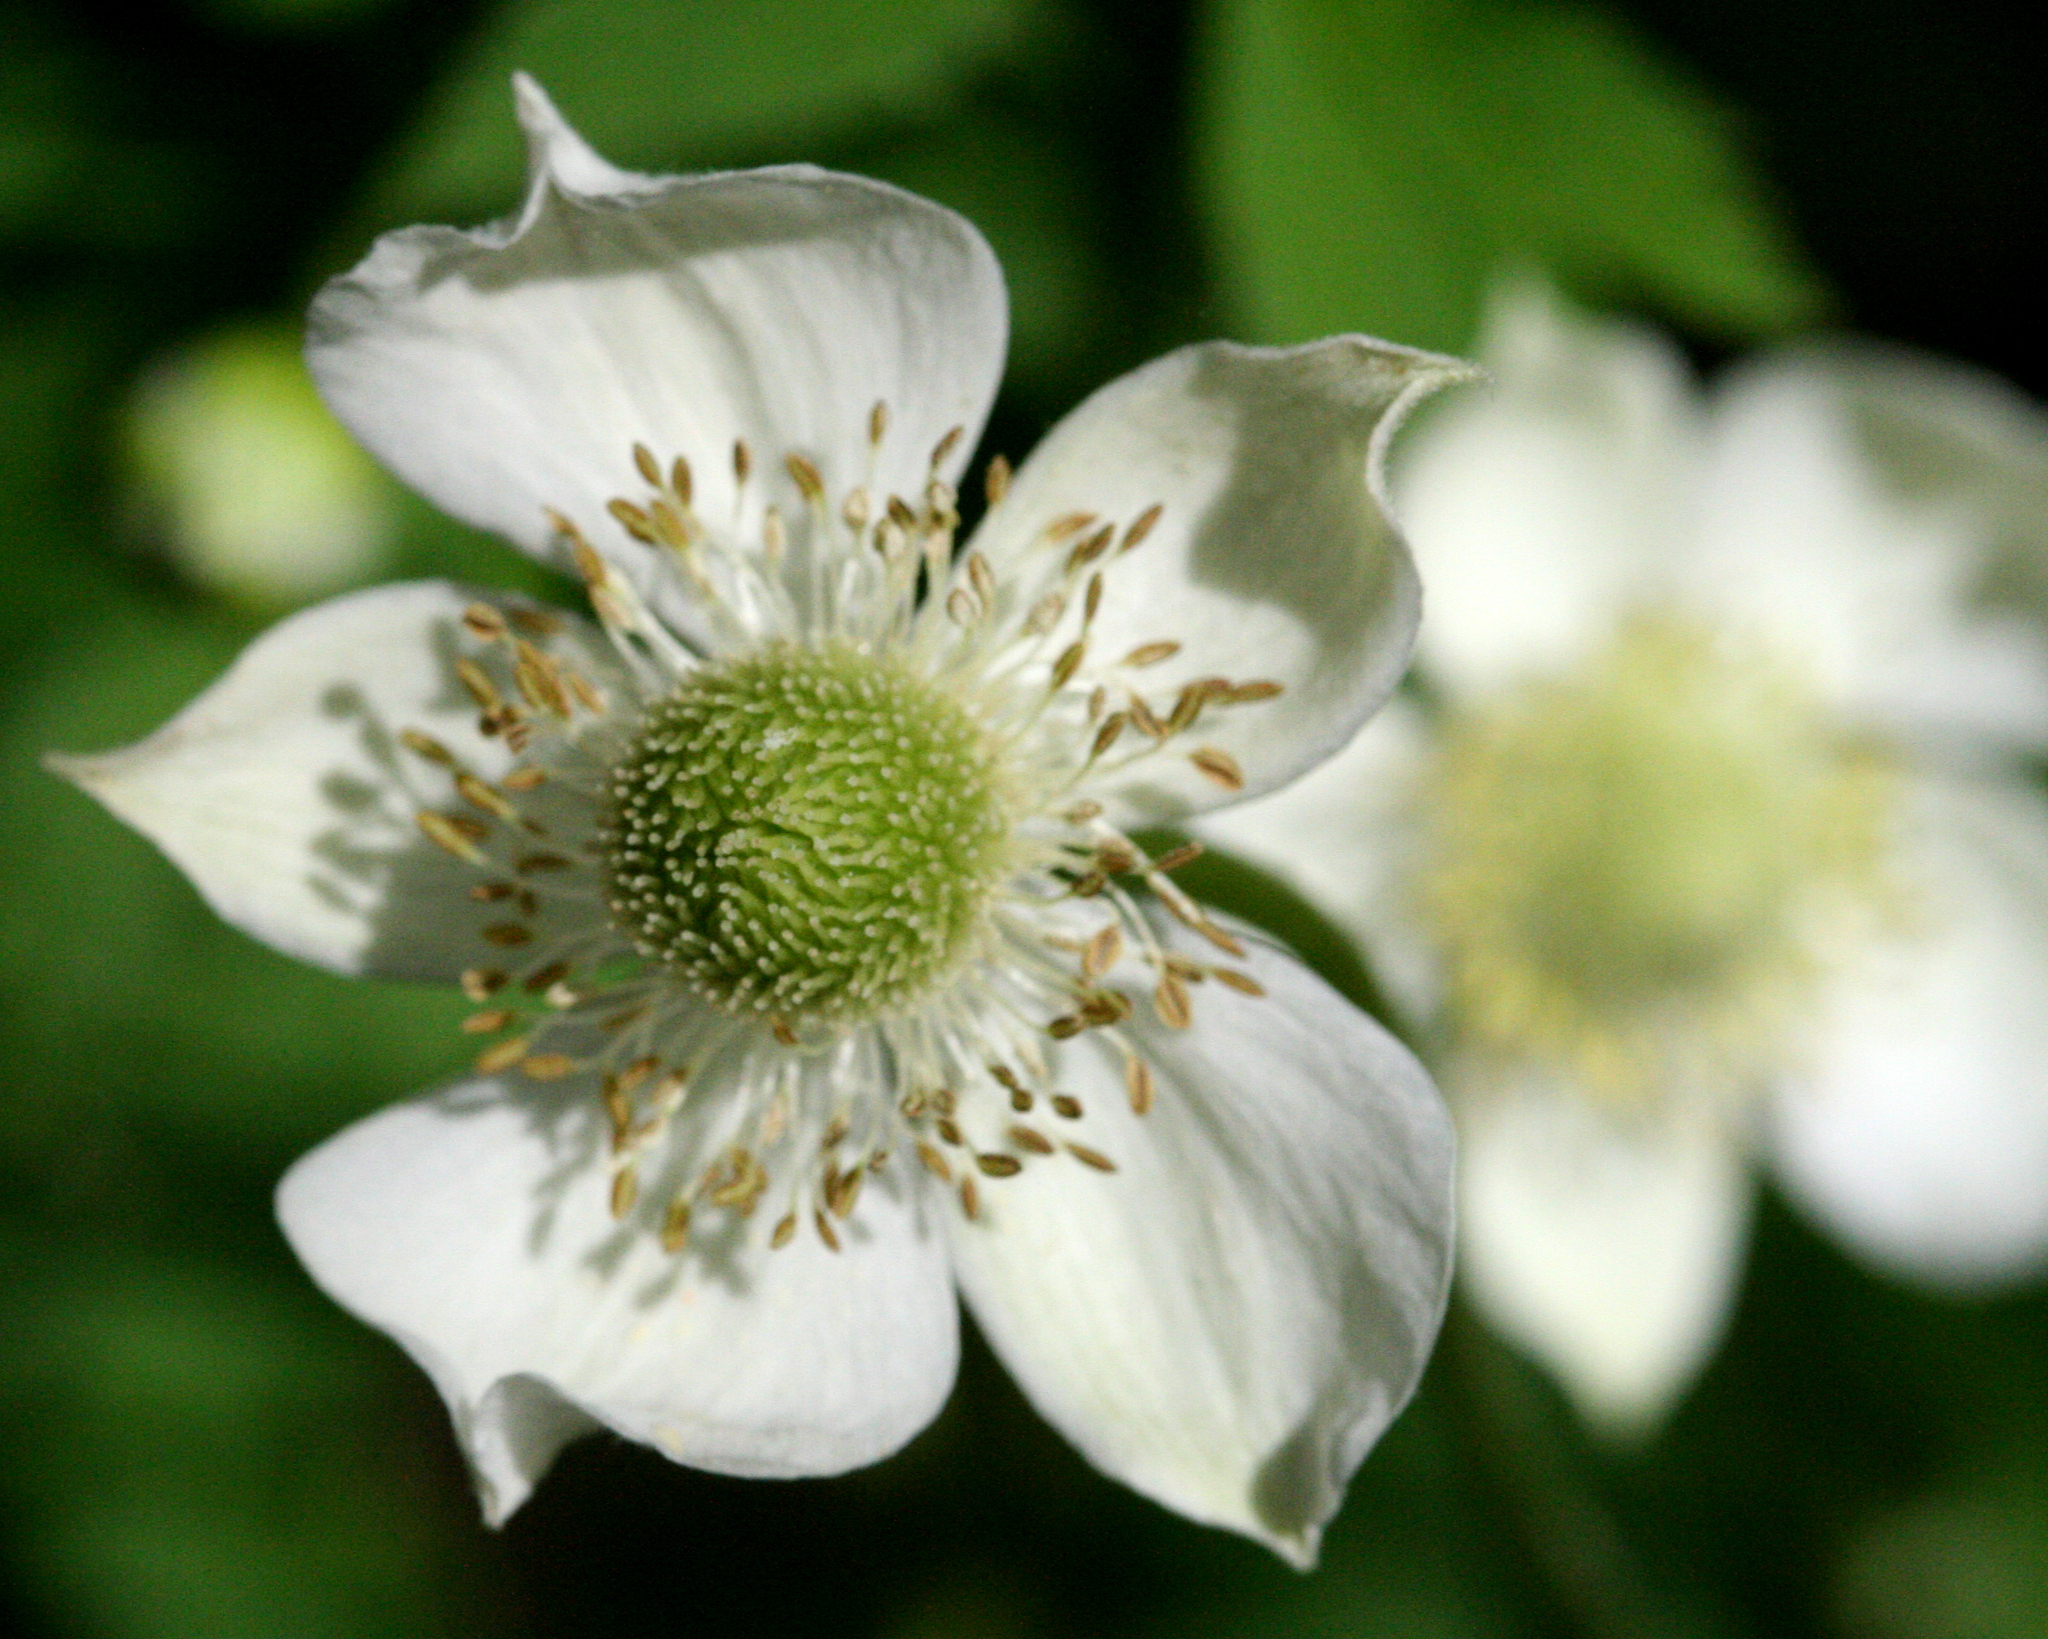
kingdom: Plantae
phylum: Tracheophyta
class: Magnoliopsida
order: Ranunculales
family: Ranunculaceae
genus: Anemone
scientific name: Anemone virginiana
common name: Tall anemone
